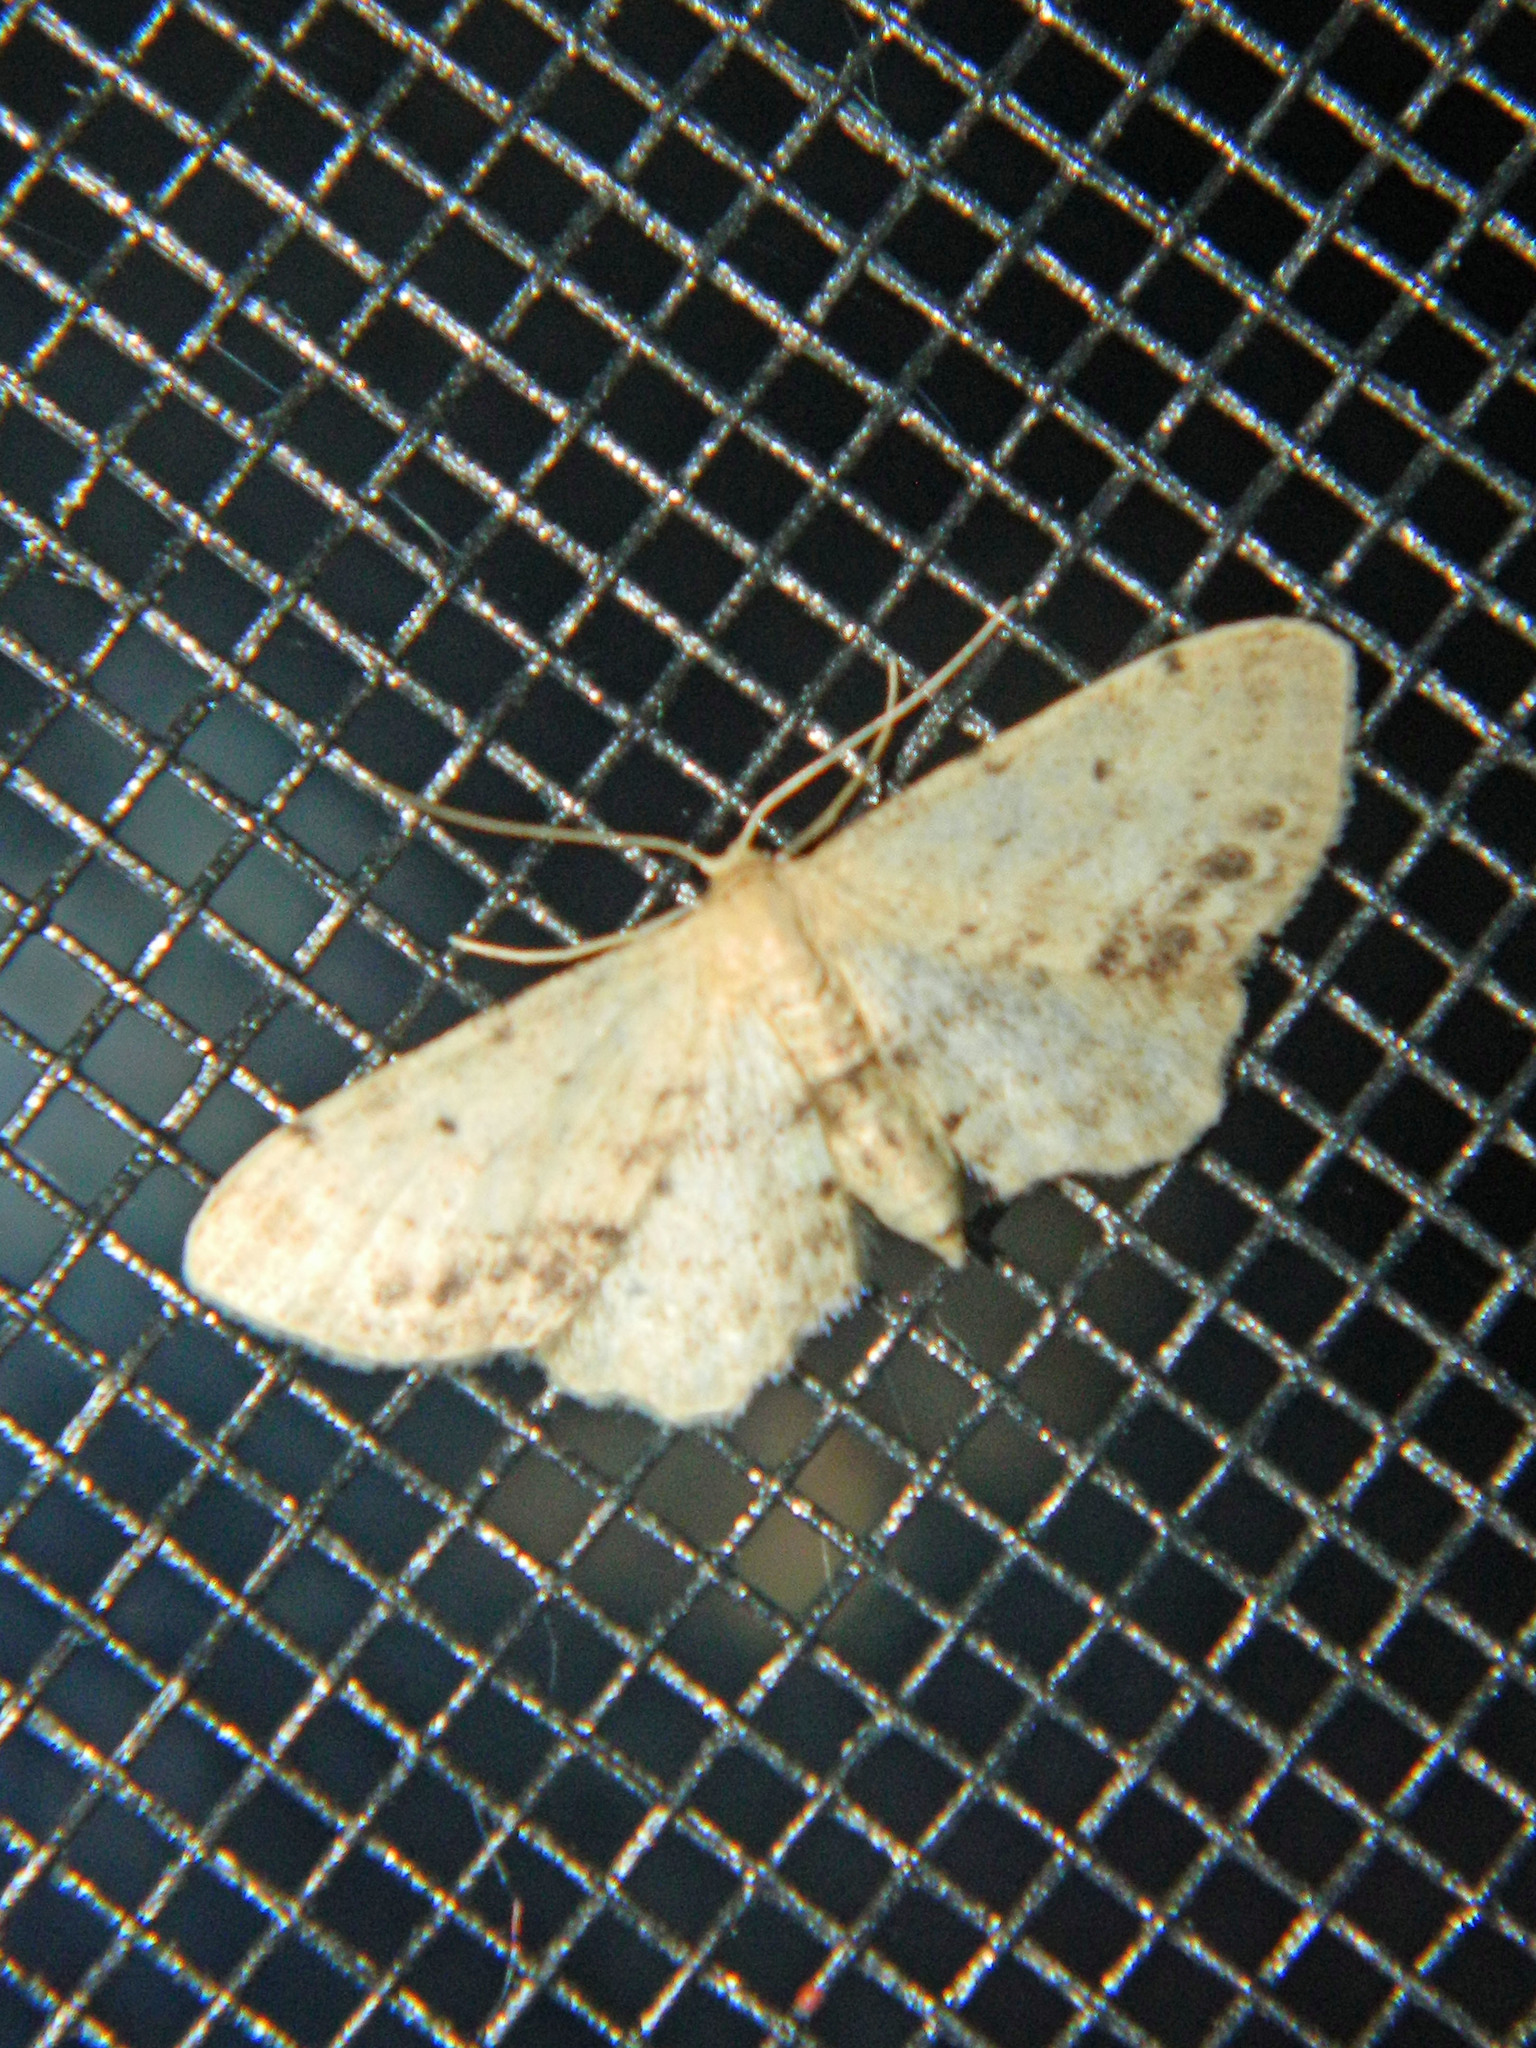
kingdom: Animalia
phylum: Arthropoda
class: Insecta
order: Lepidoptera
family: Geometridae
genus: Idaea
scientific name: Idaea dimidiata
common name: Single-dotted wave
